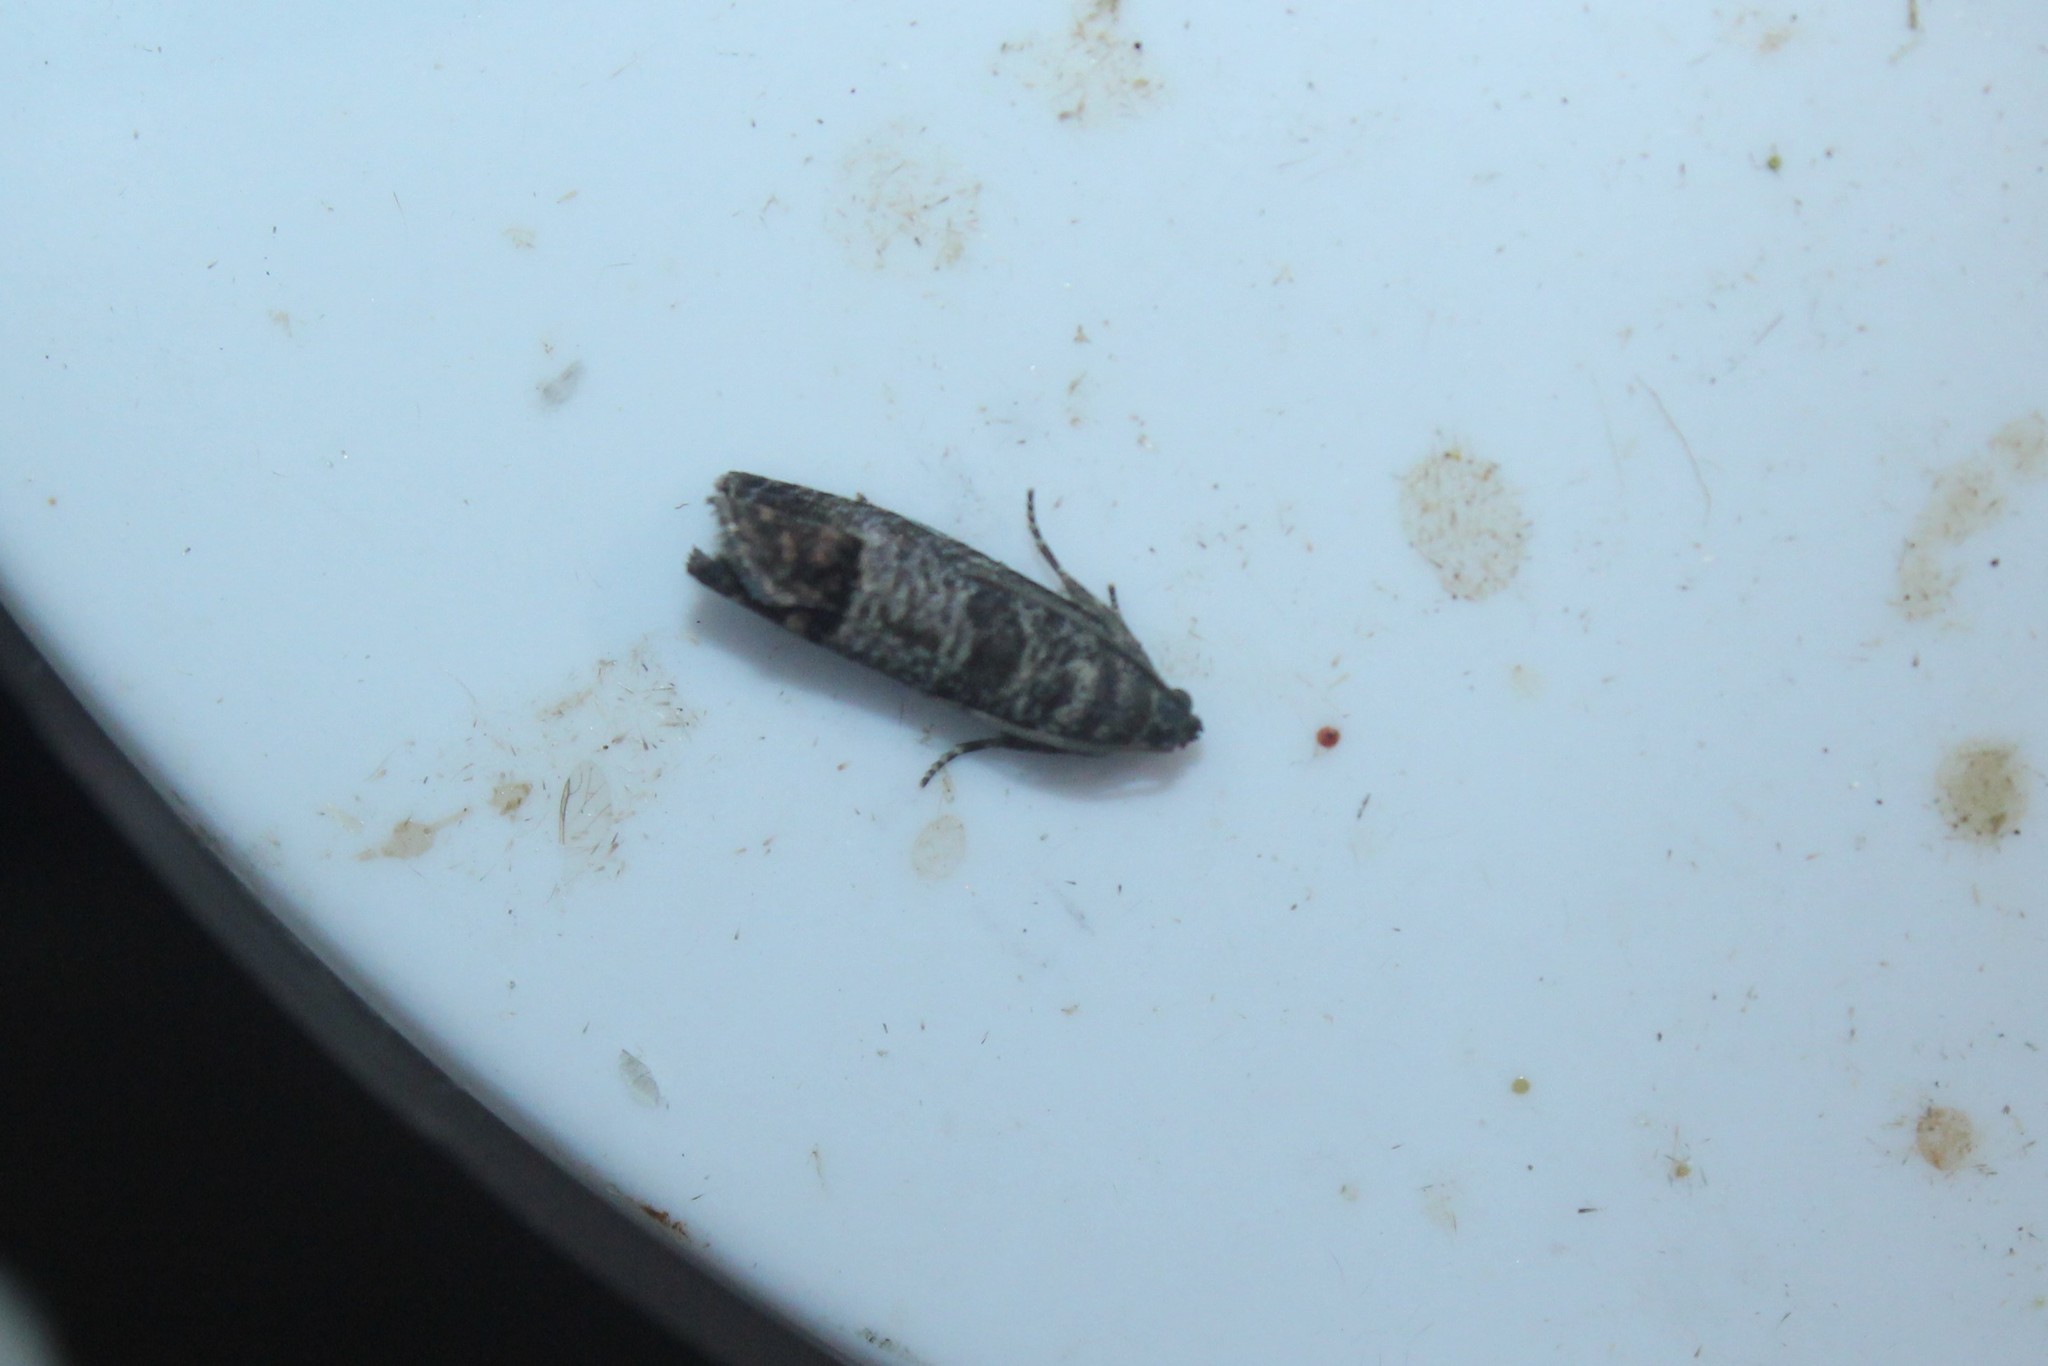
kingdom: Animalia
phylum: Arthropoda
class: Insecta
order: Lepidoptera
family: Tortricidae
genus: Cydia
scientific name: Cydia pomonella
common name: Codling moth
